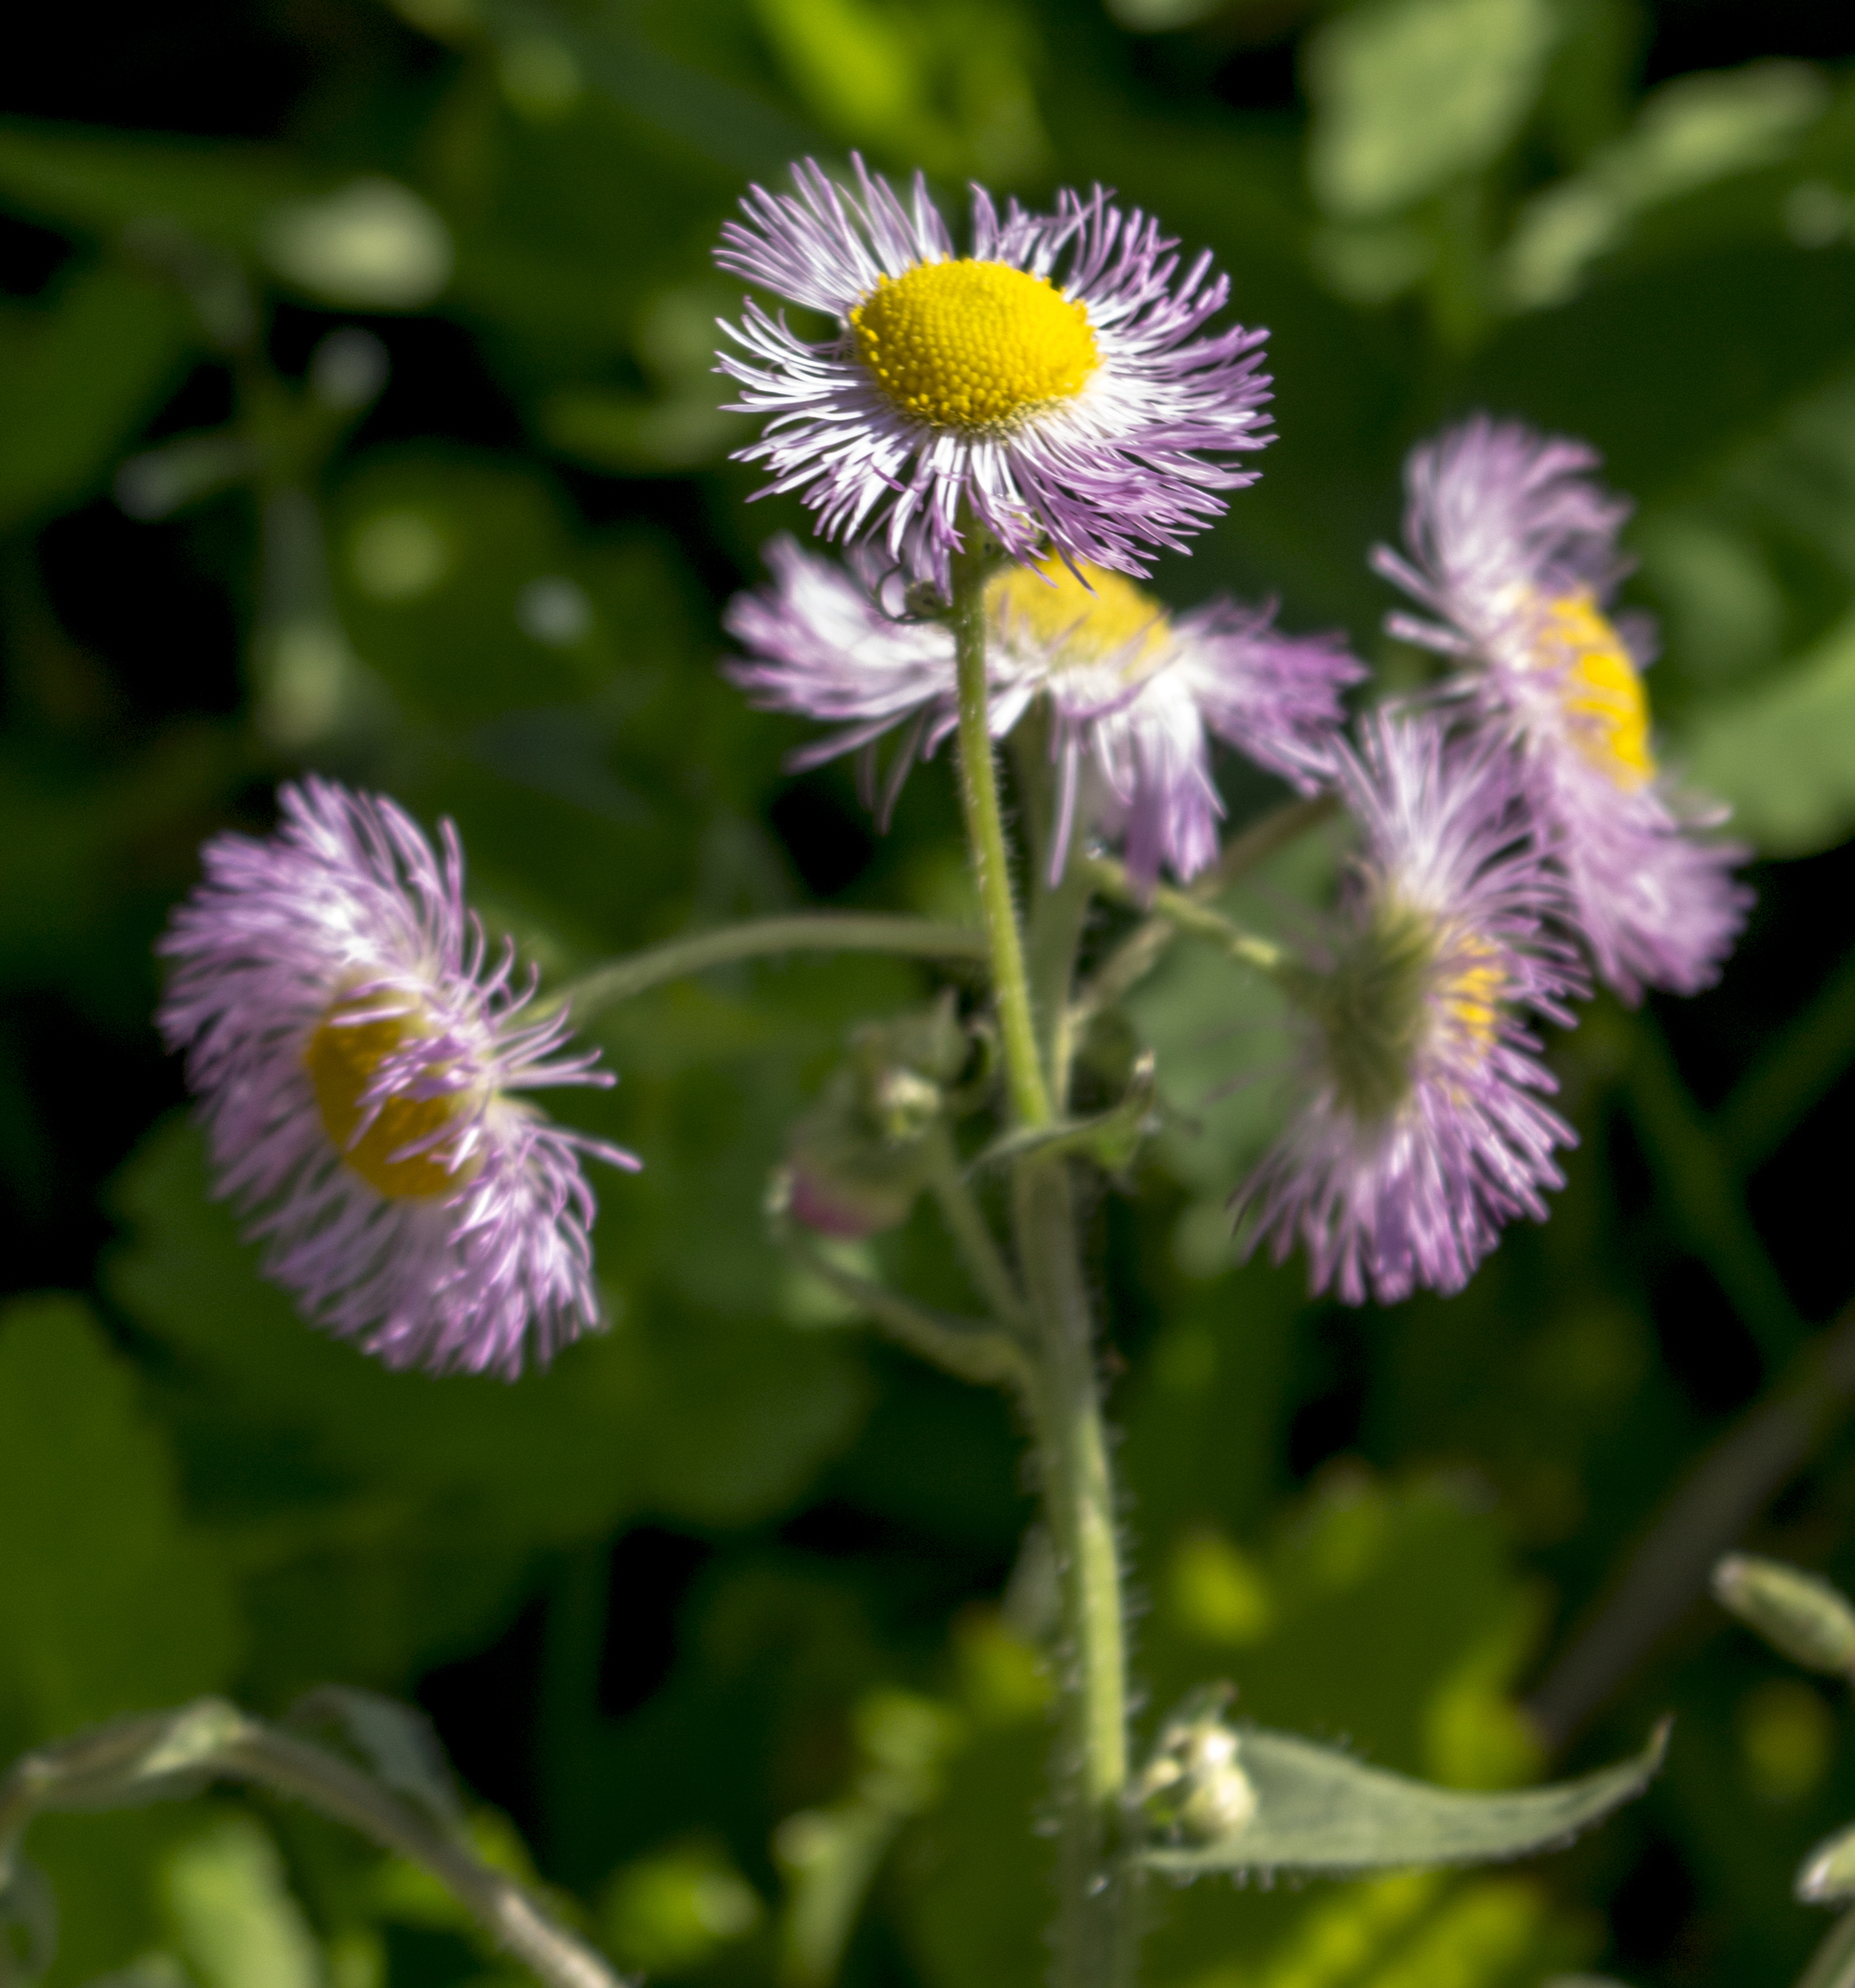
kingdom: Plantae
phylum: Tracheophyta
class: Magnoliopsida
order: Asterales
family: Asteraceae
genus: Erigeron
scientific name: Erigeron philadelphicus
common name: Robin's-plantain
